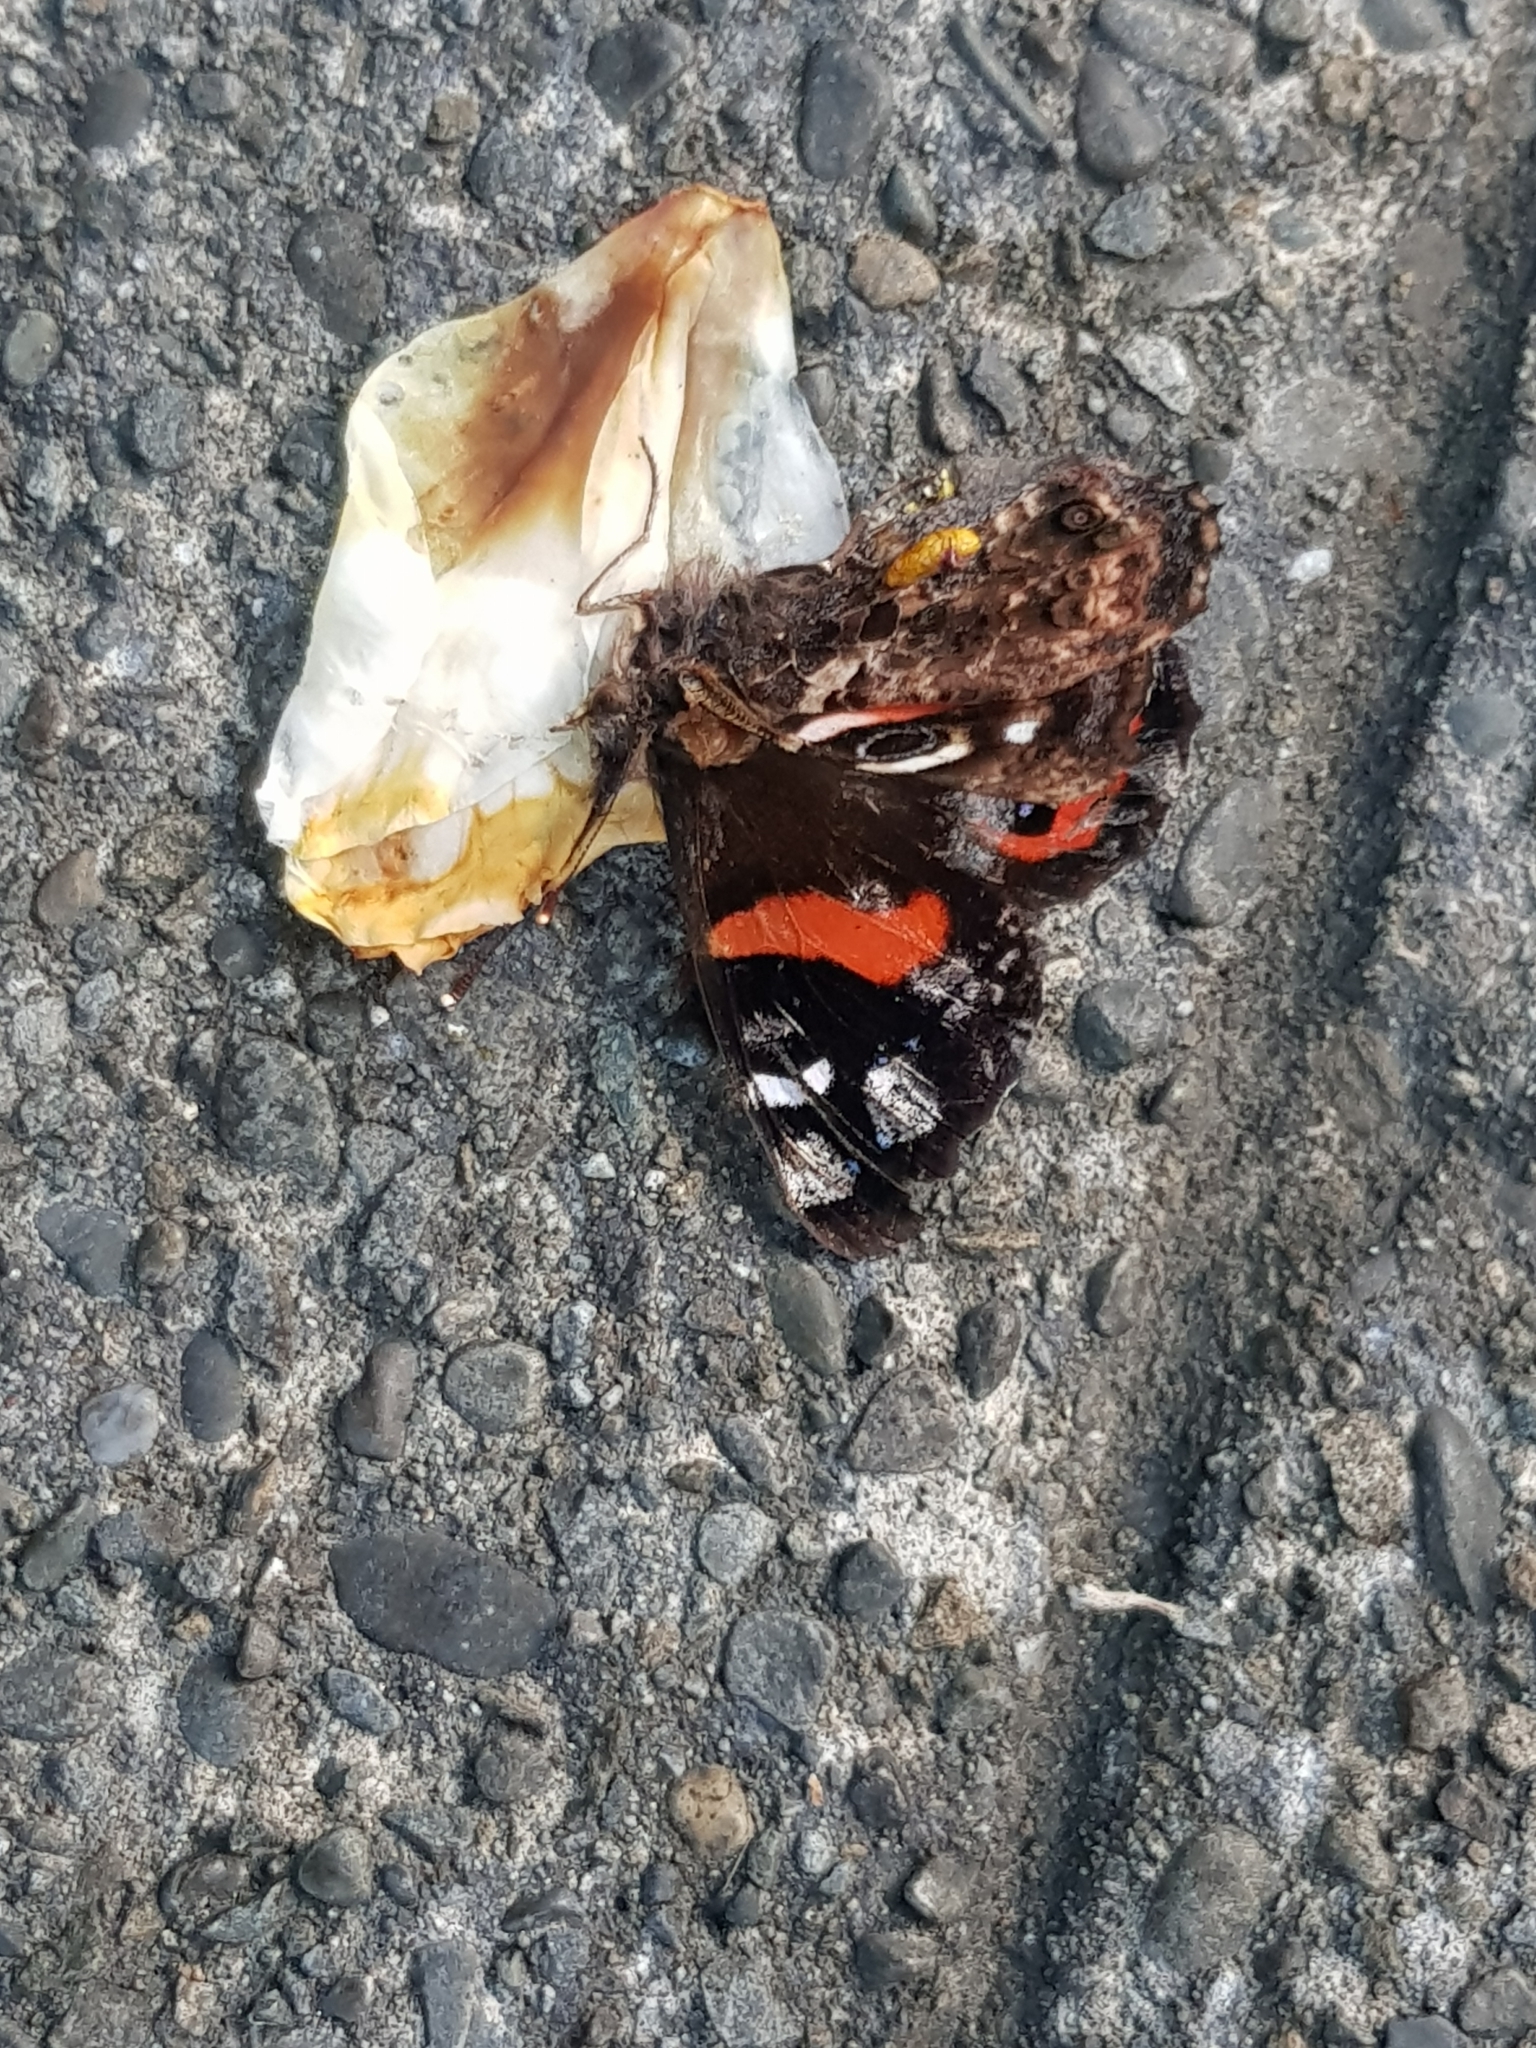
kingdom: Animalia
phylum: Arthropoda
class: Insecta
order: Lepidoptera
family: Nymphalidae
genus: Vanessa
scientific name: Vanessa gonerilla
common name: New zealand red admiral
